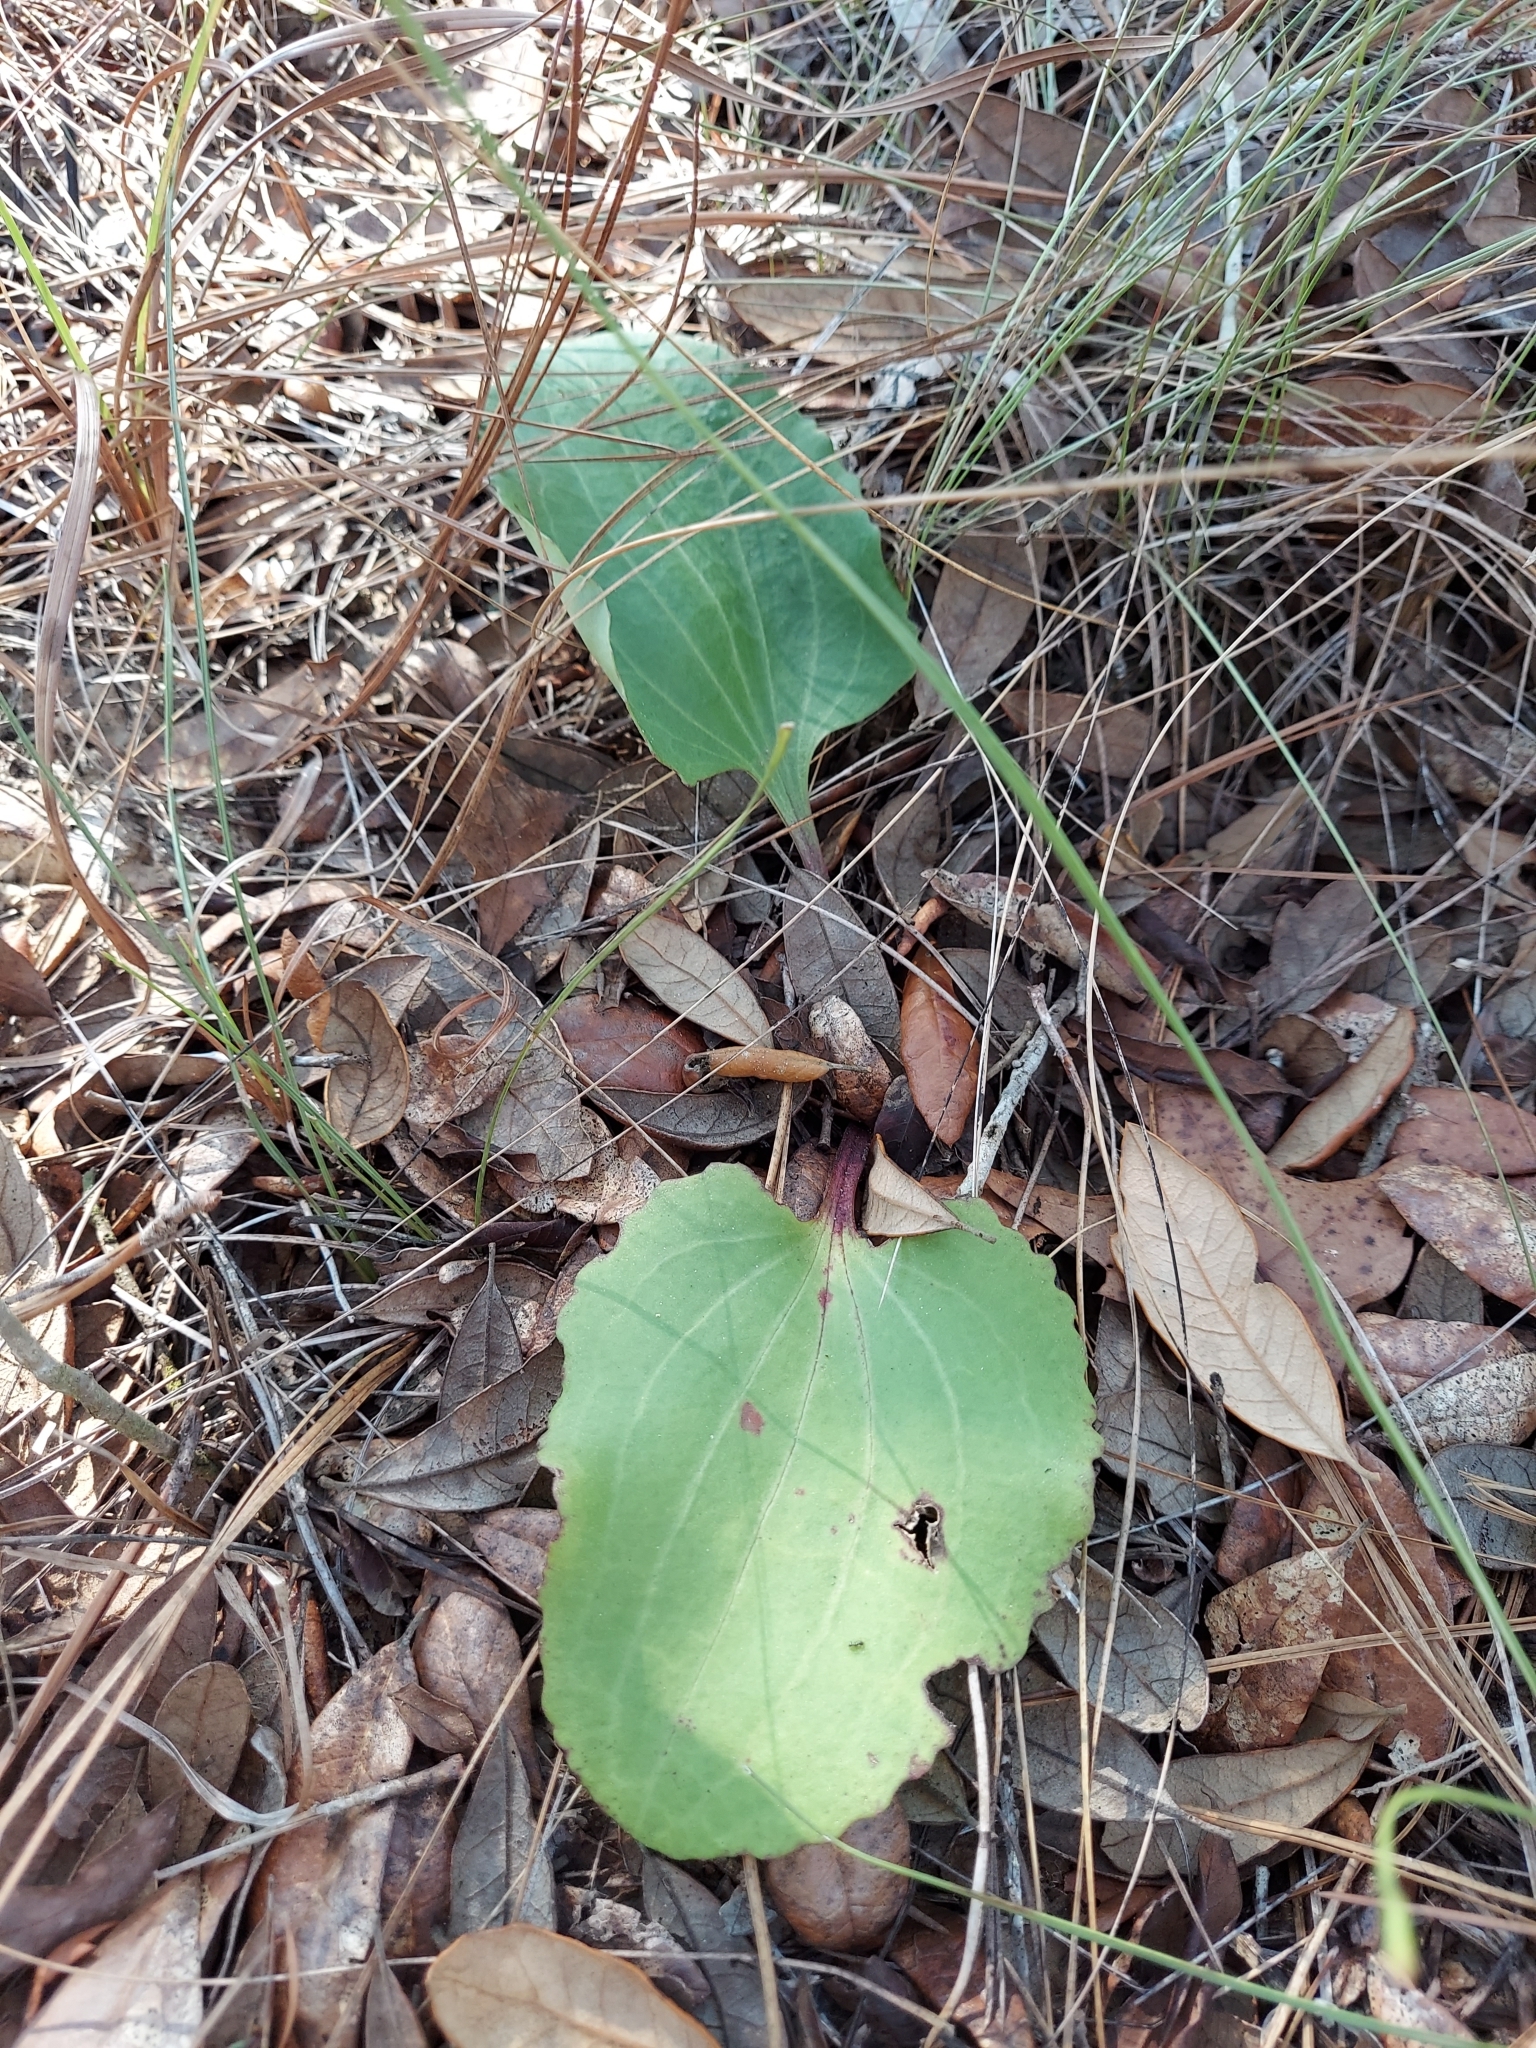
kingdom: Plantae
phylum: Tracheophyta
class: Magnoliopsida
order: Asterales
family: Asteraceae
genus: Arnoglossum
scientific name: Arnoglossum floridanum
